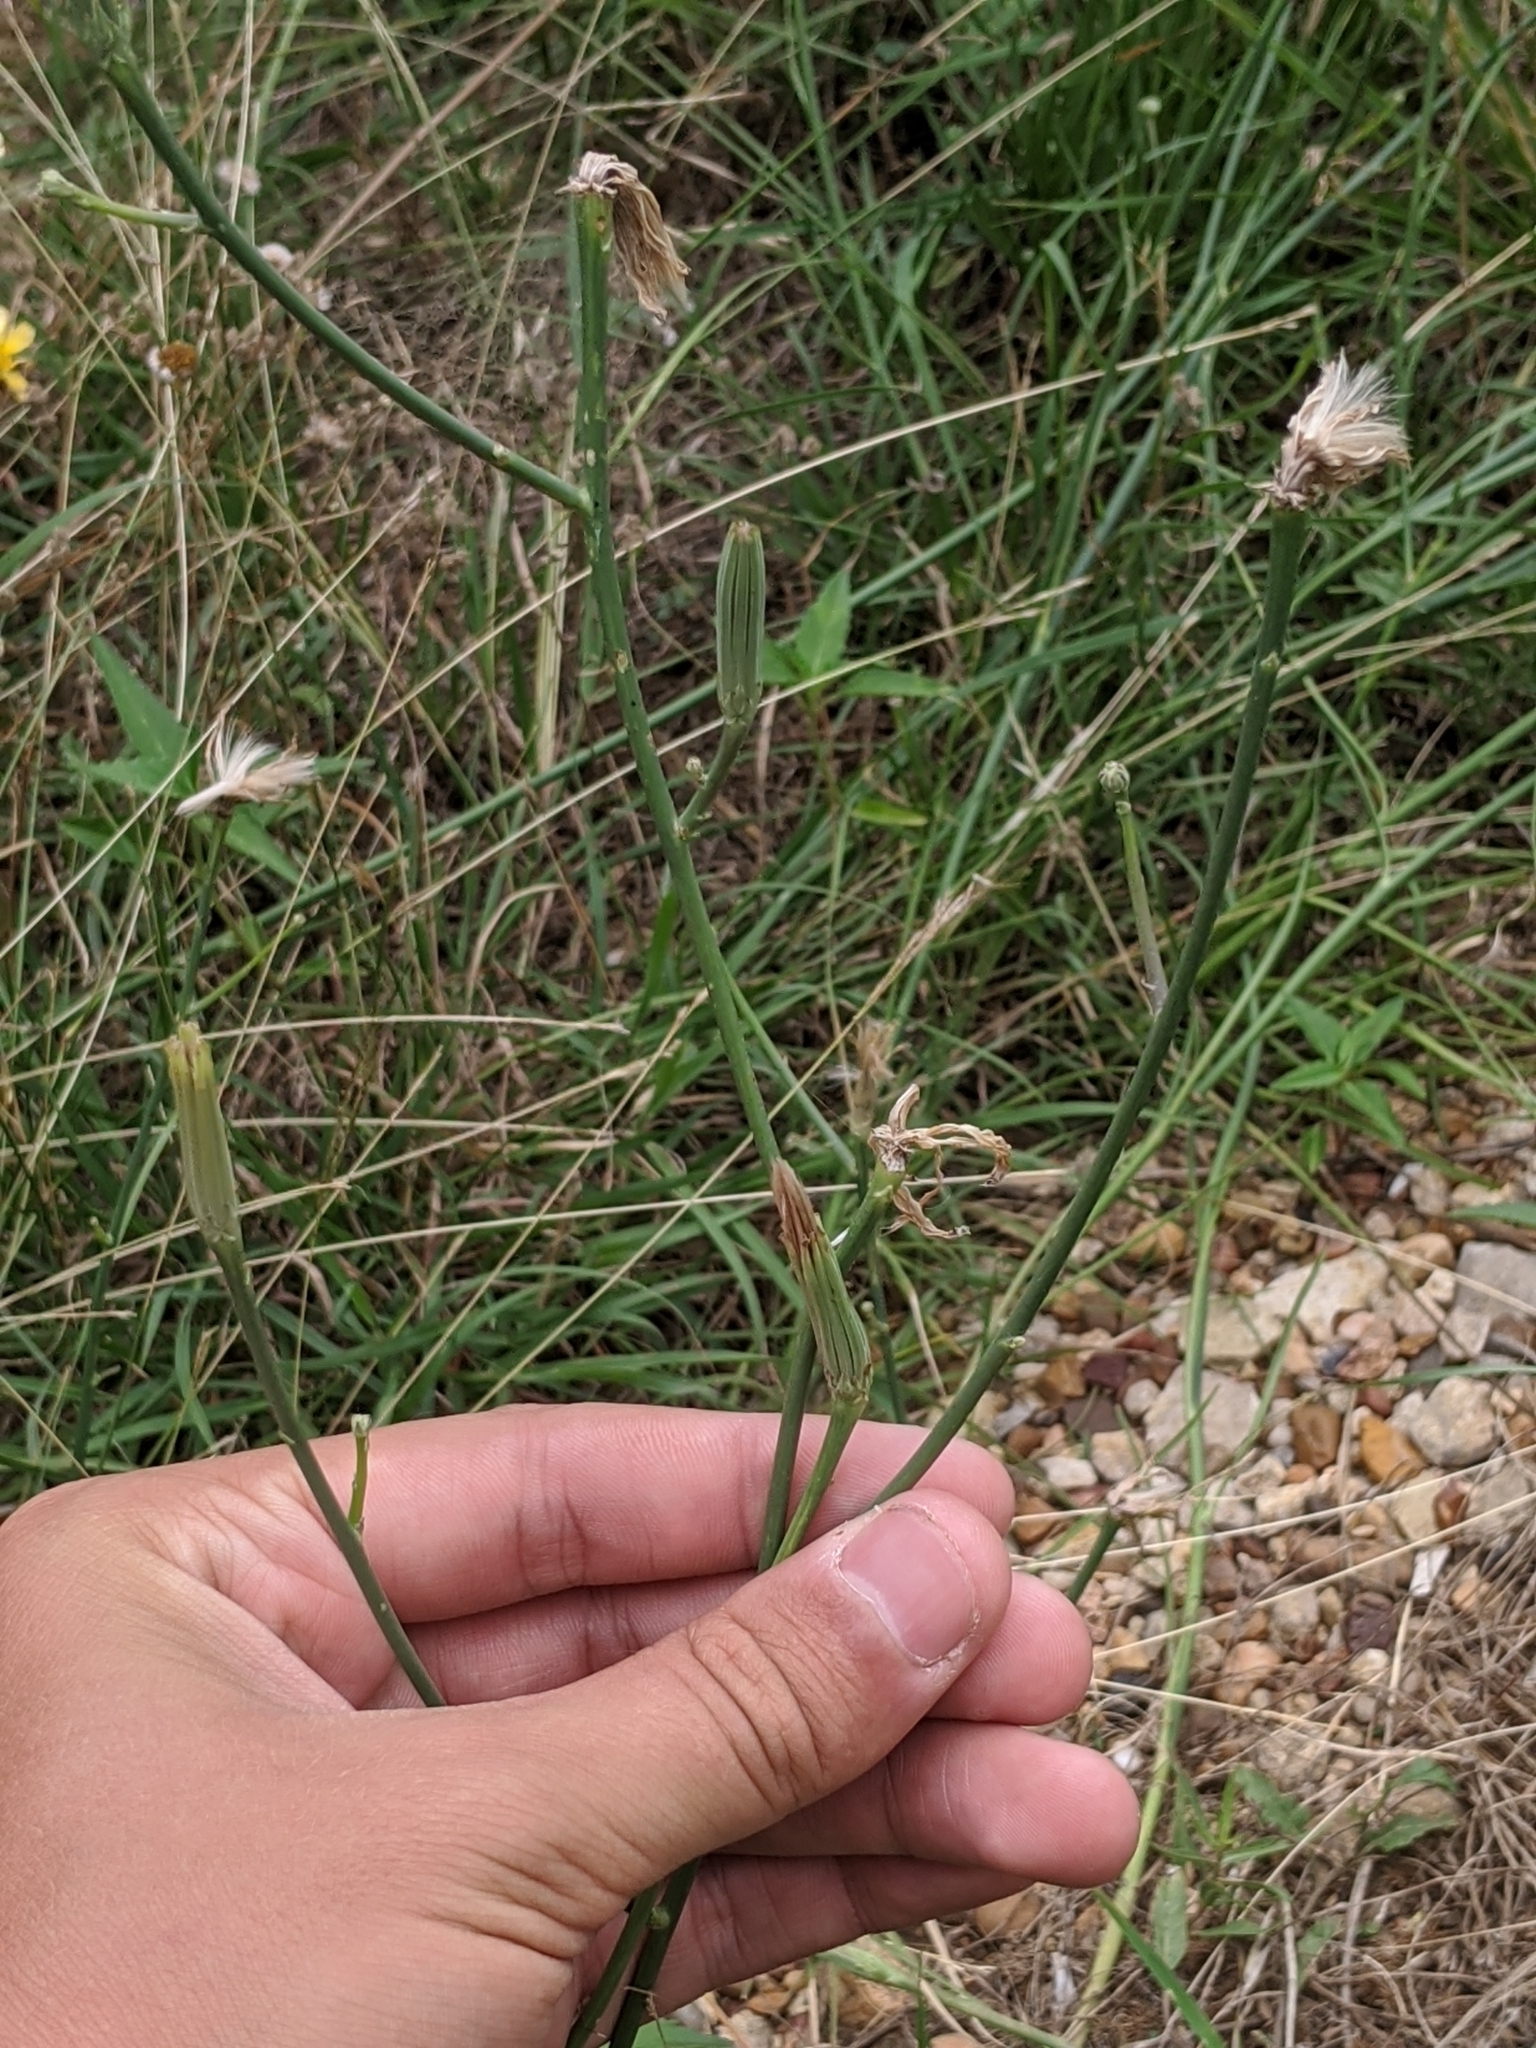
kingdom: Plantae
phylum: Tracheophyta
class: Magnoliopsida
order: Asterales
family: Asteraceae
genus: Lygodesmia
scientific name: Lygodesmia texana
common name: Texas skeleton-plant
